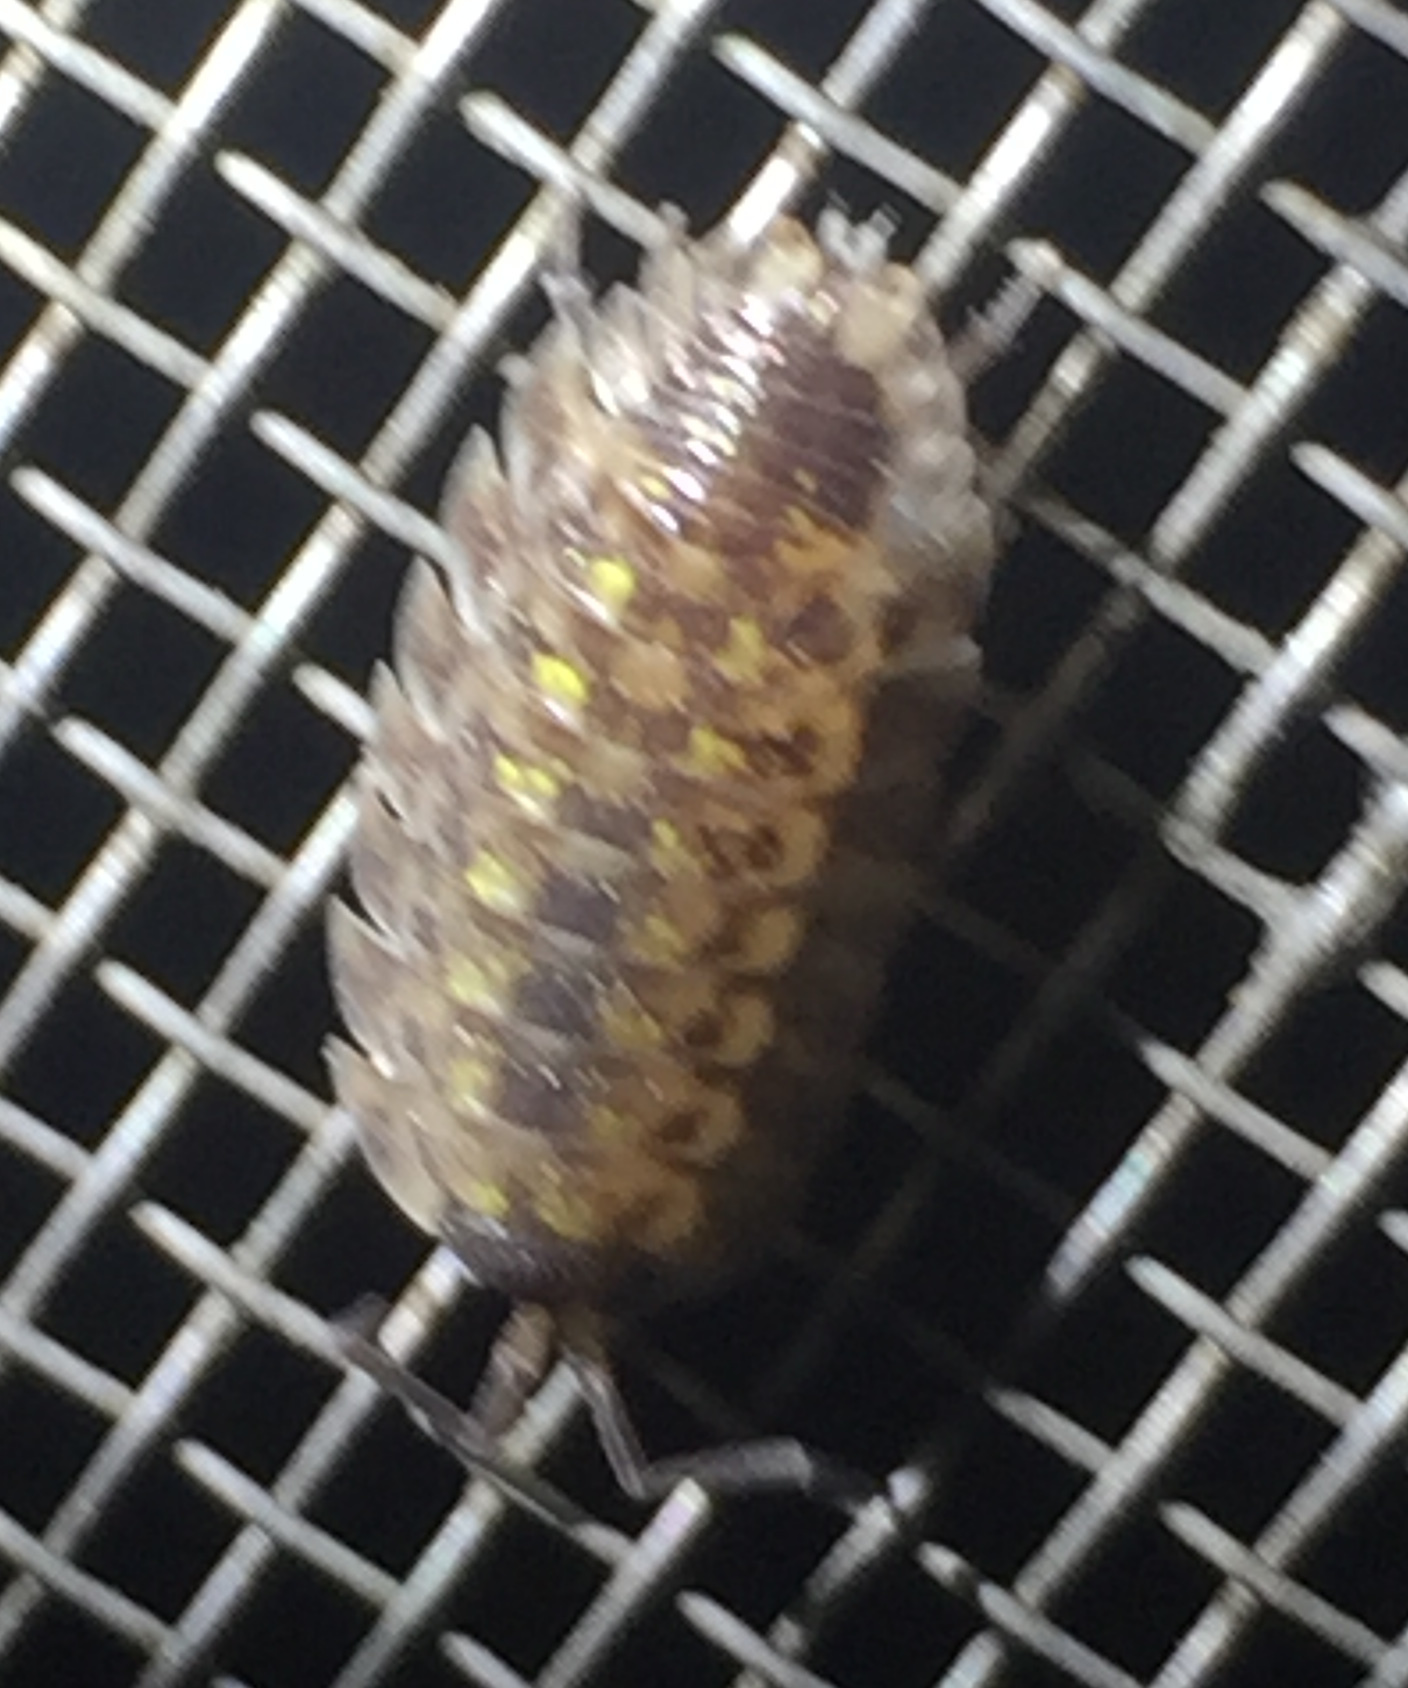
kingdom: Animalia
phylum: Arthropoda
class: Malacostraca
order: Isopoda
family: Porcellionidae
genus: Porcellio
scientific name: Porcellio spinicornis
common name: Painted woodlouse
